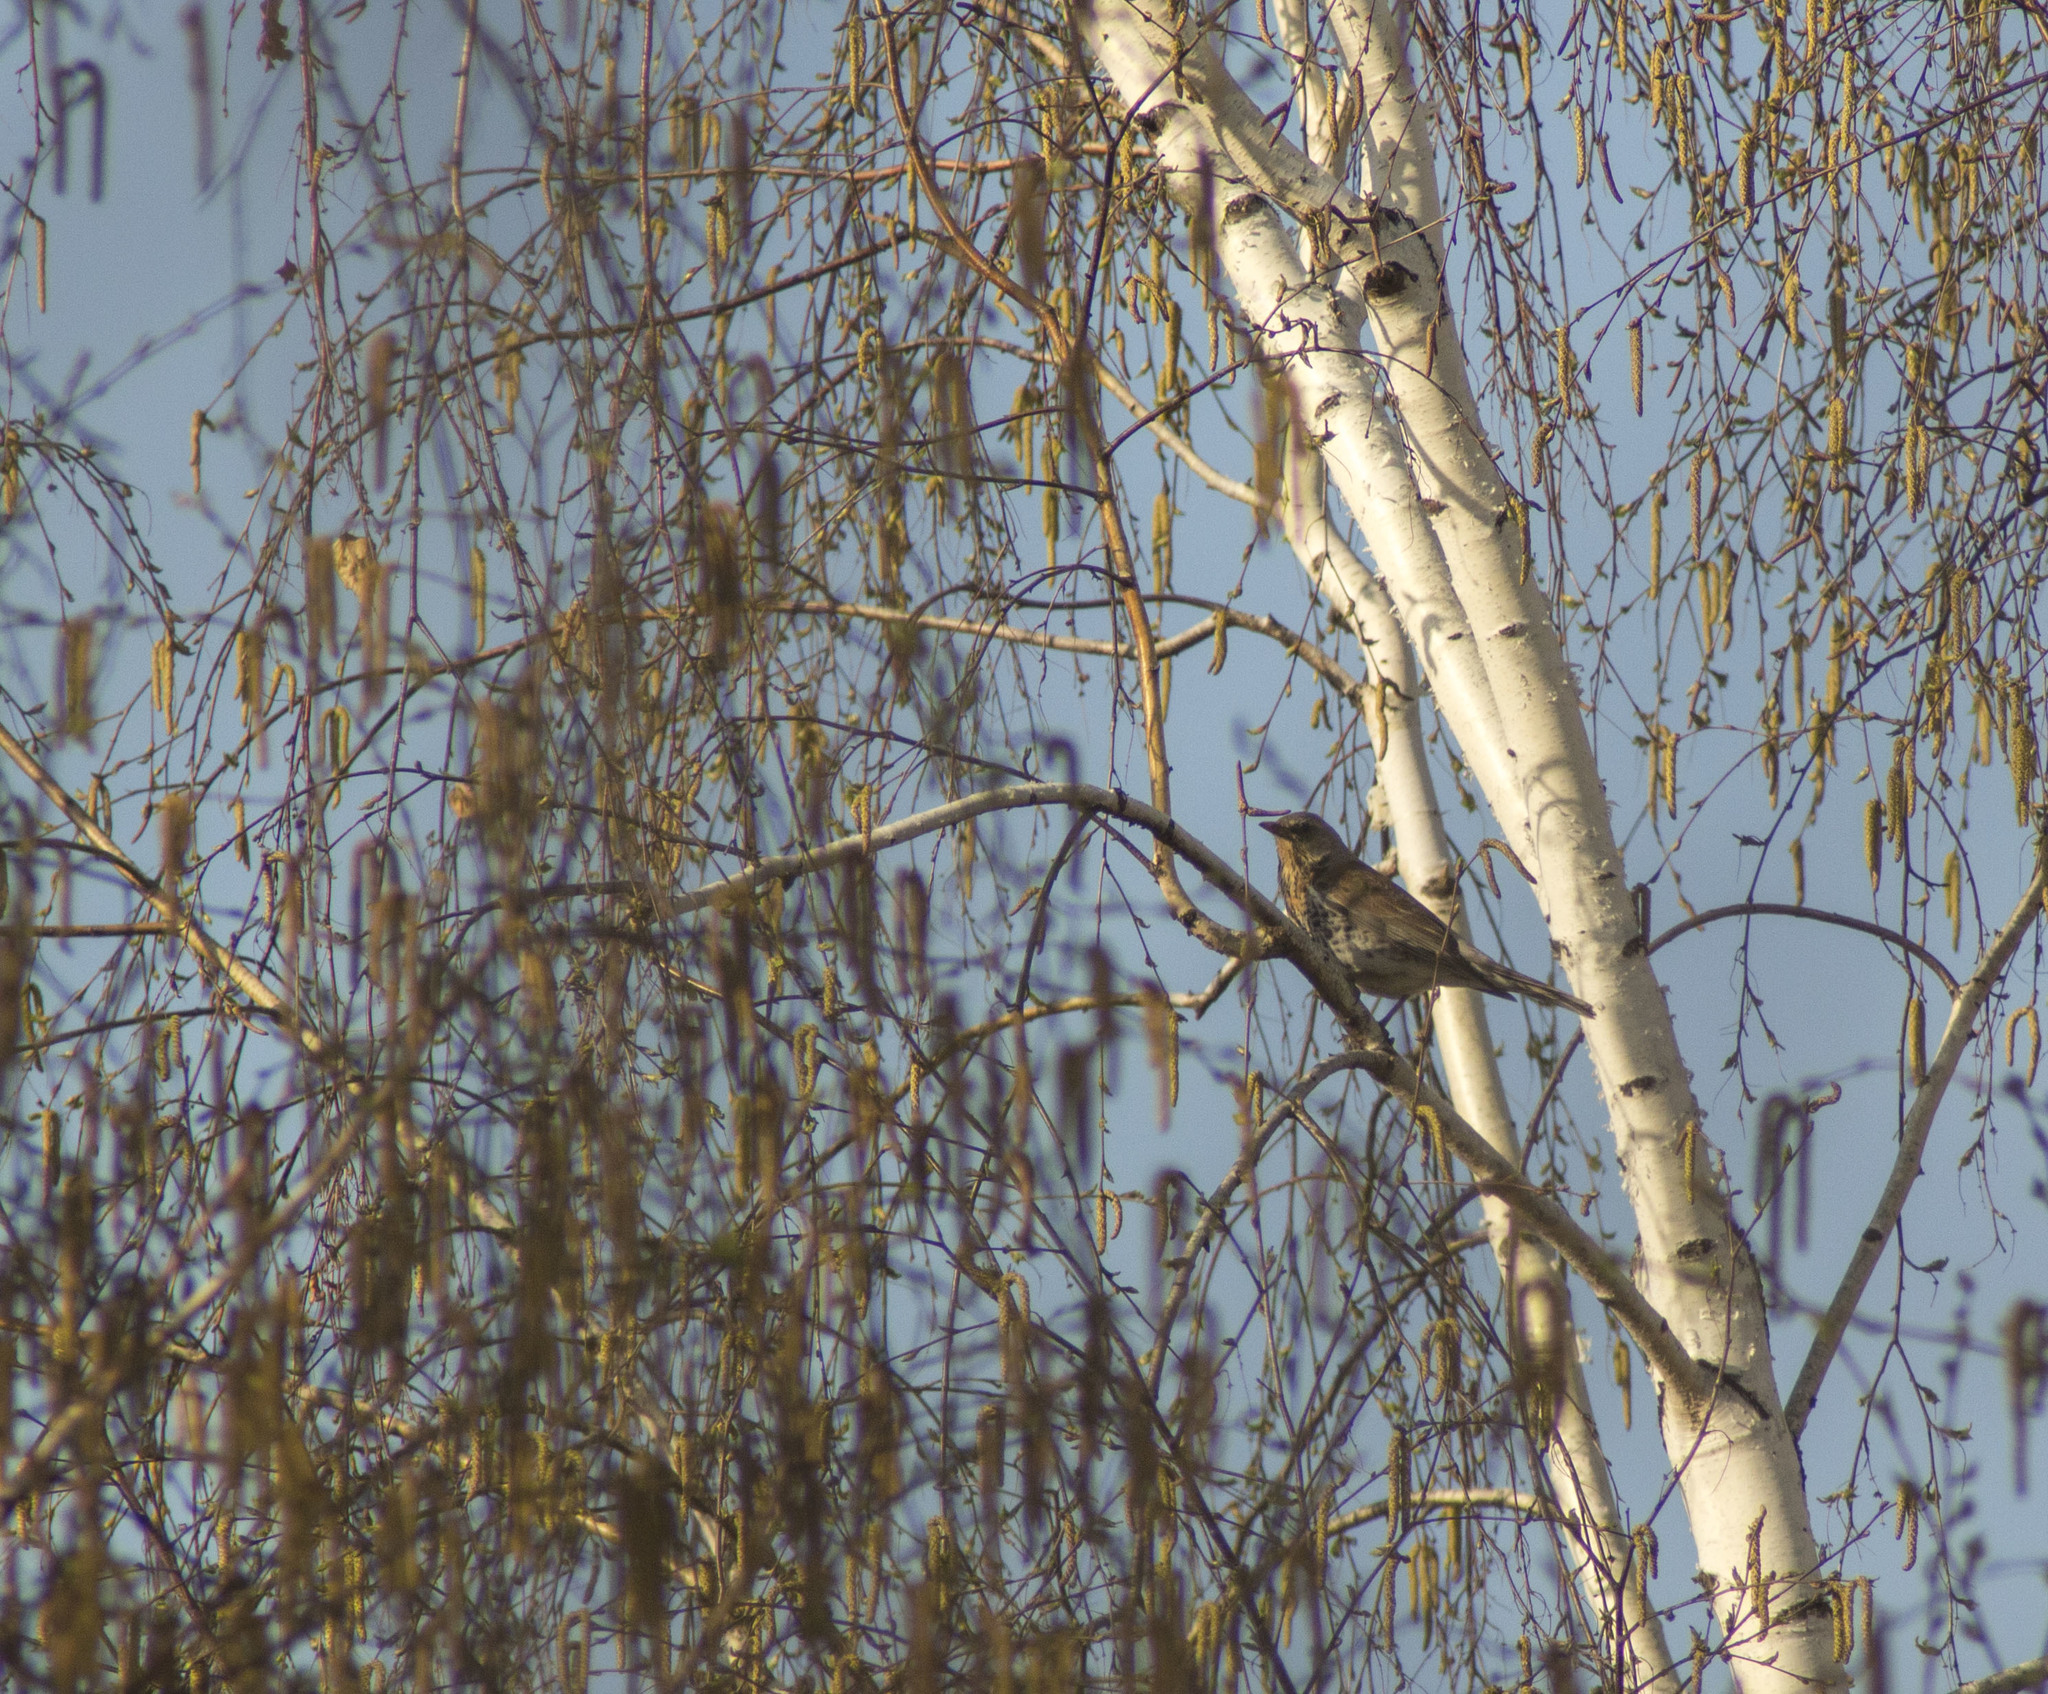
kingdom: Animalia
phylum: Chordata
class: Aves
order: Passeriformes
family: Turdidae
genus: Turdus
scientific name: Turdus pilaris
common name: Fieldfare
